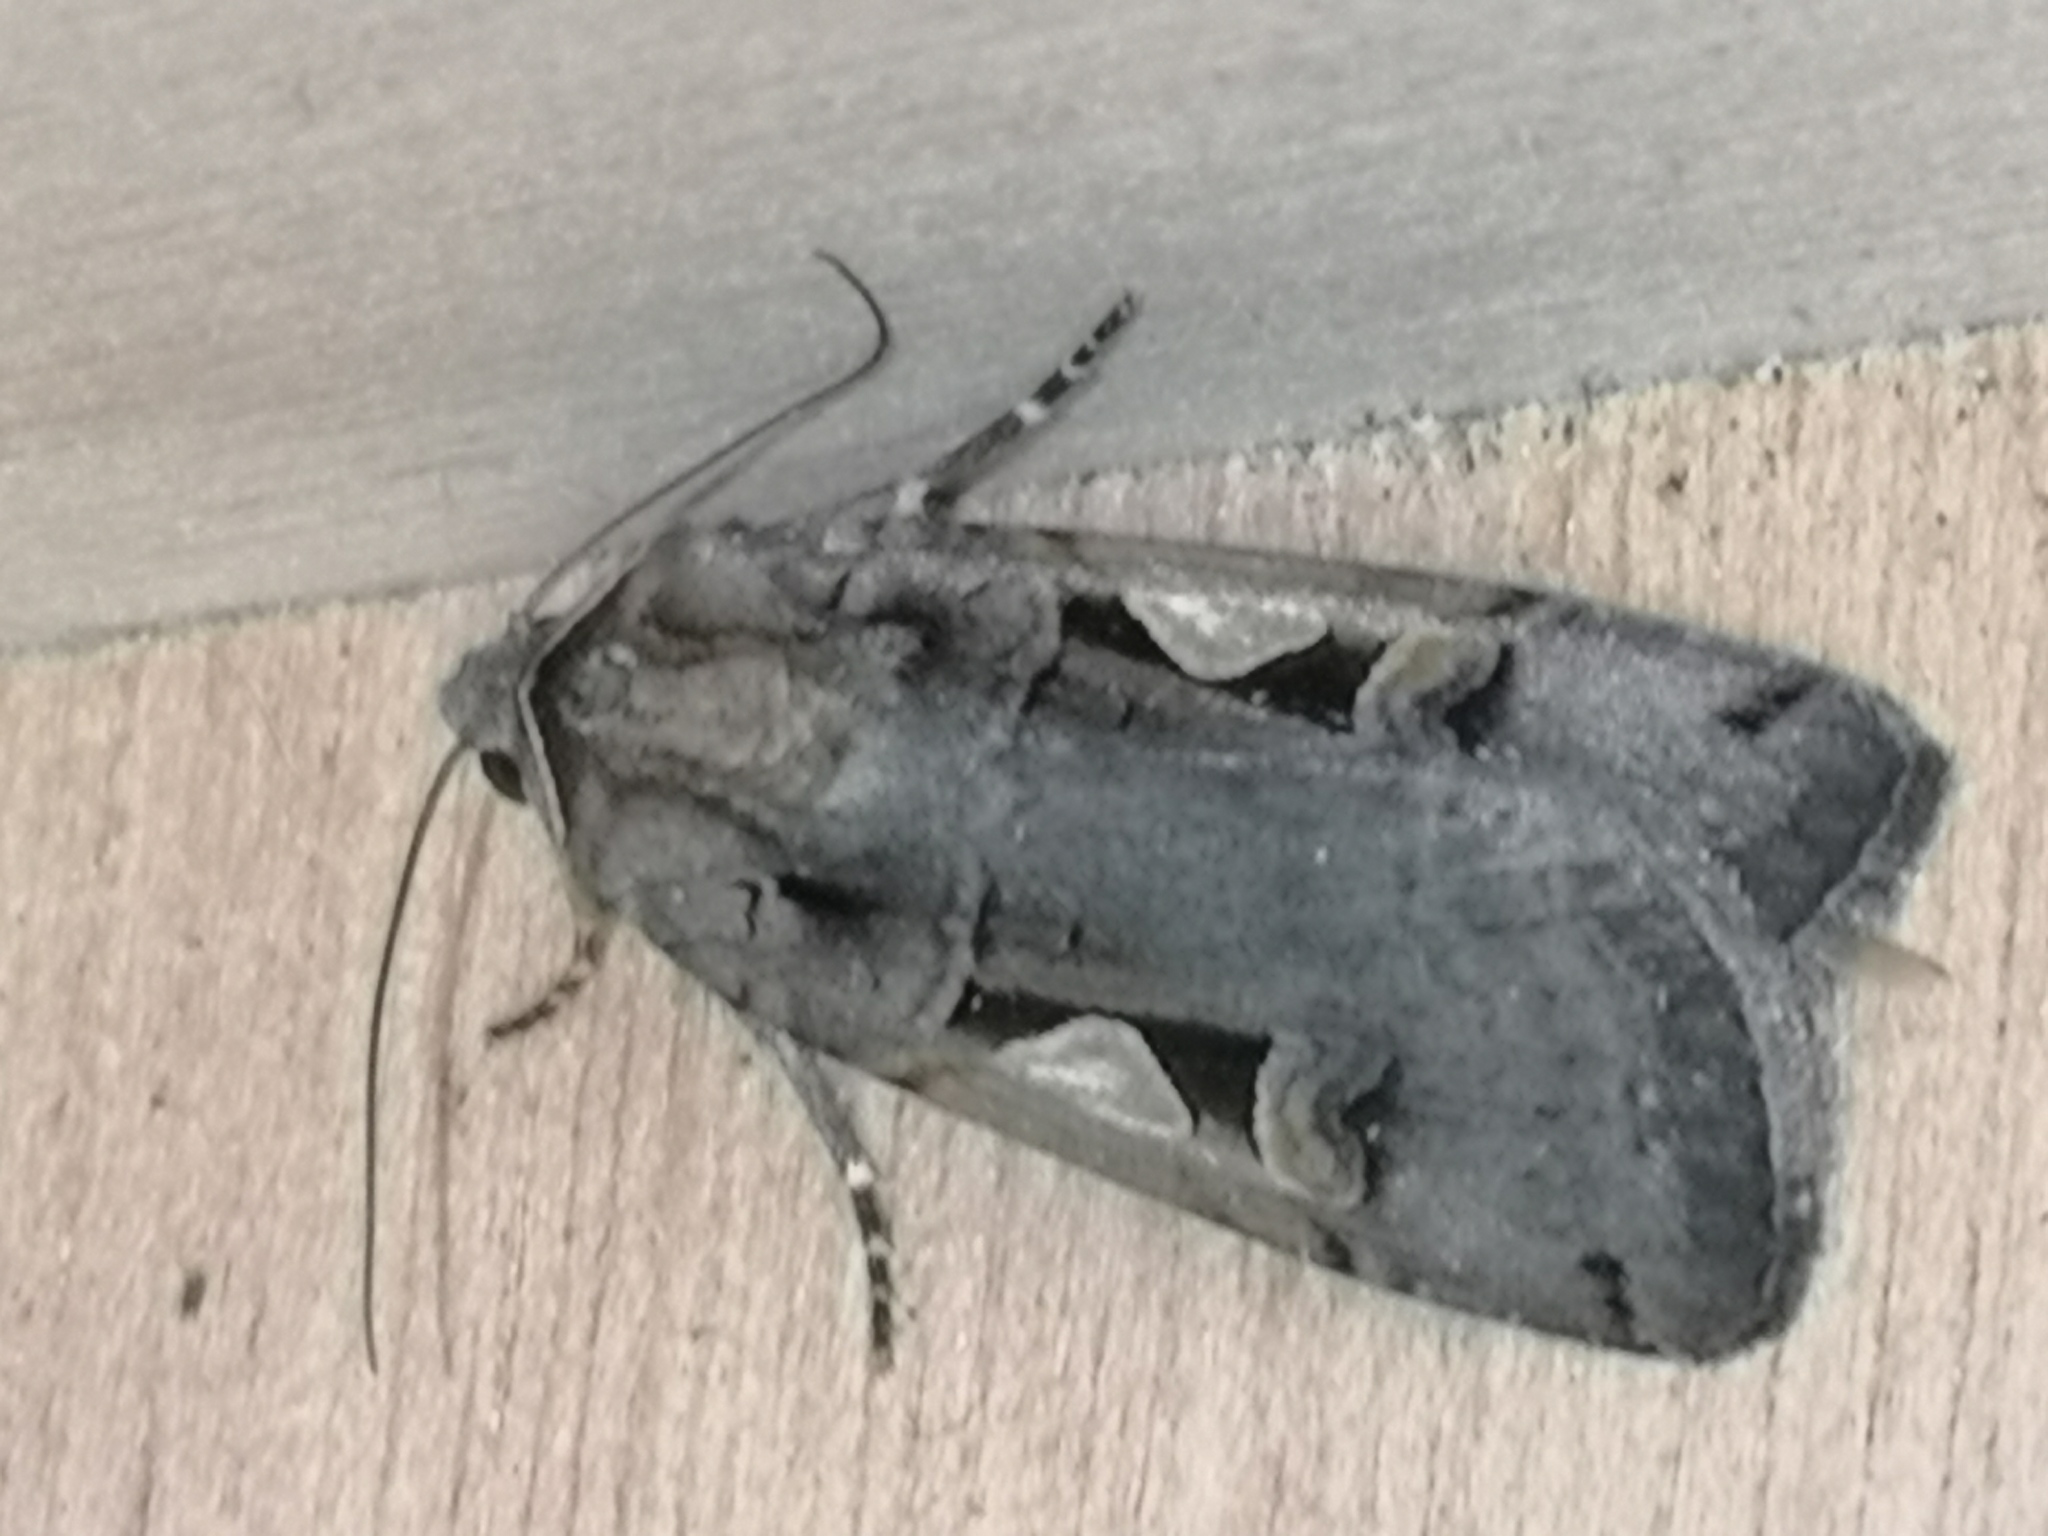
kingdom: Animalia
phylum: Arthropoda
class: Insecta
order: Lepidoptera
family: Noctuidae
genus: Xestia
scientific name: Xestia c-nigrum
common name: Setaceous hebrew character
